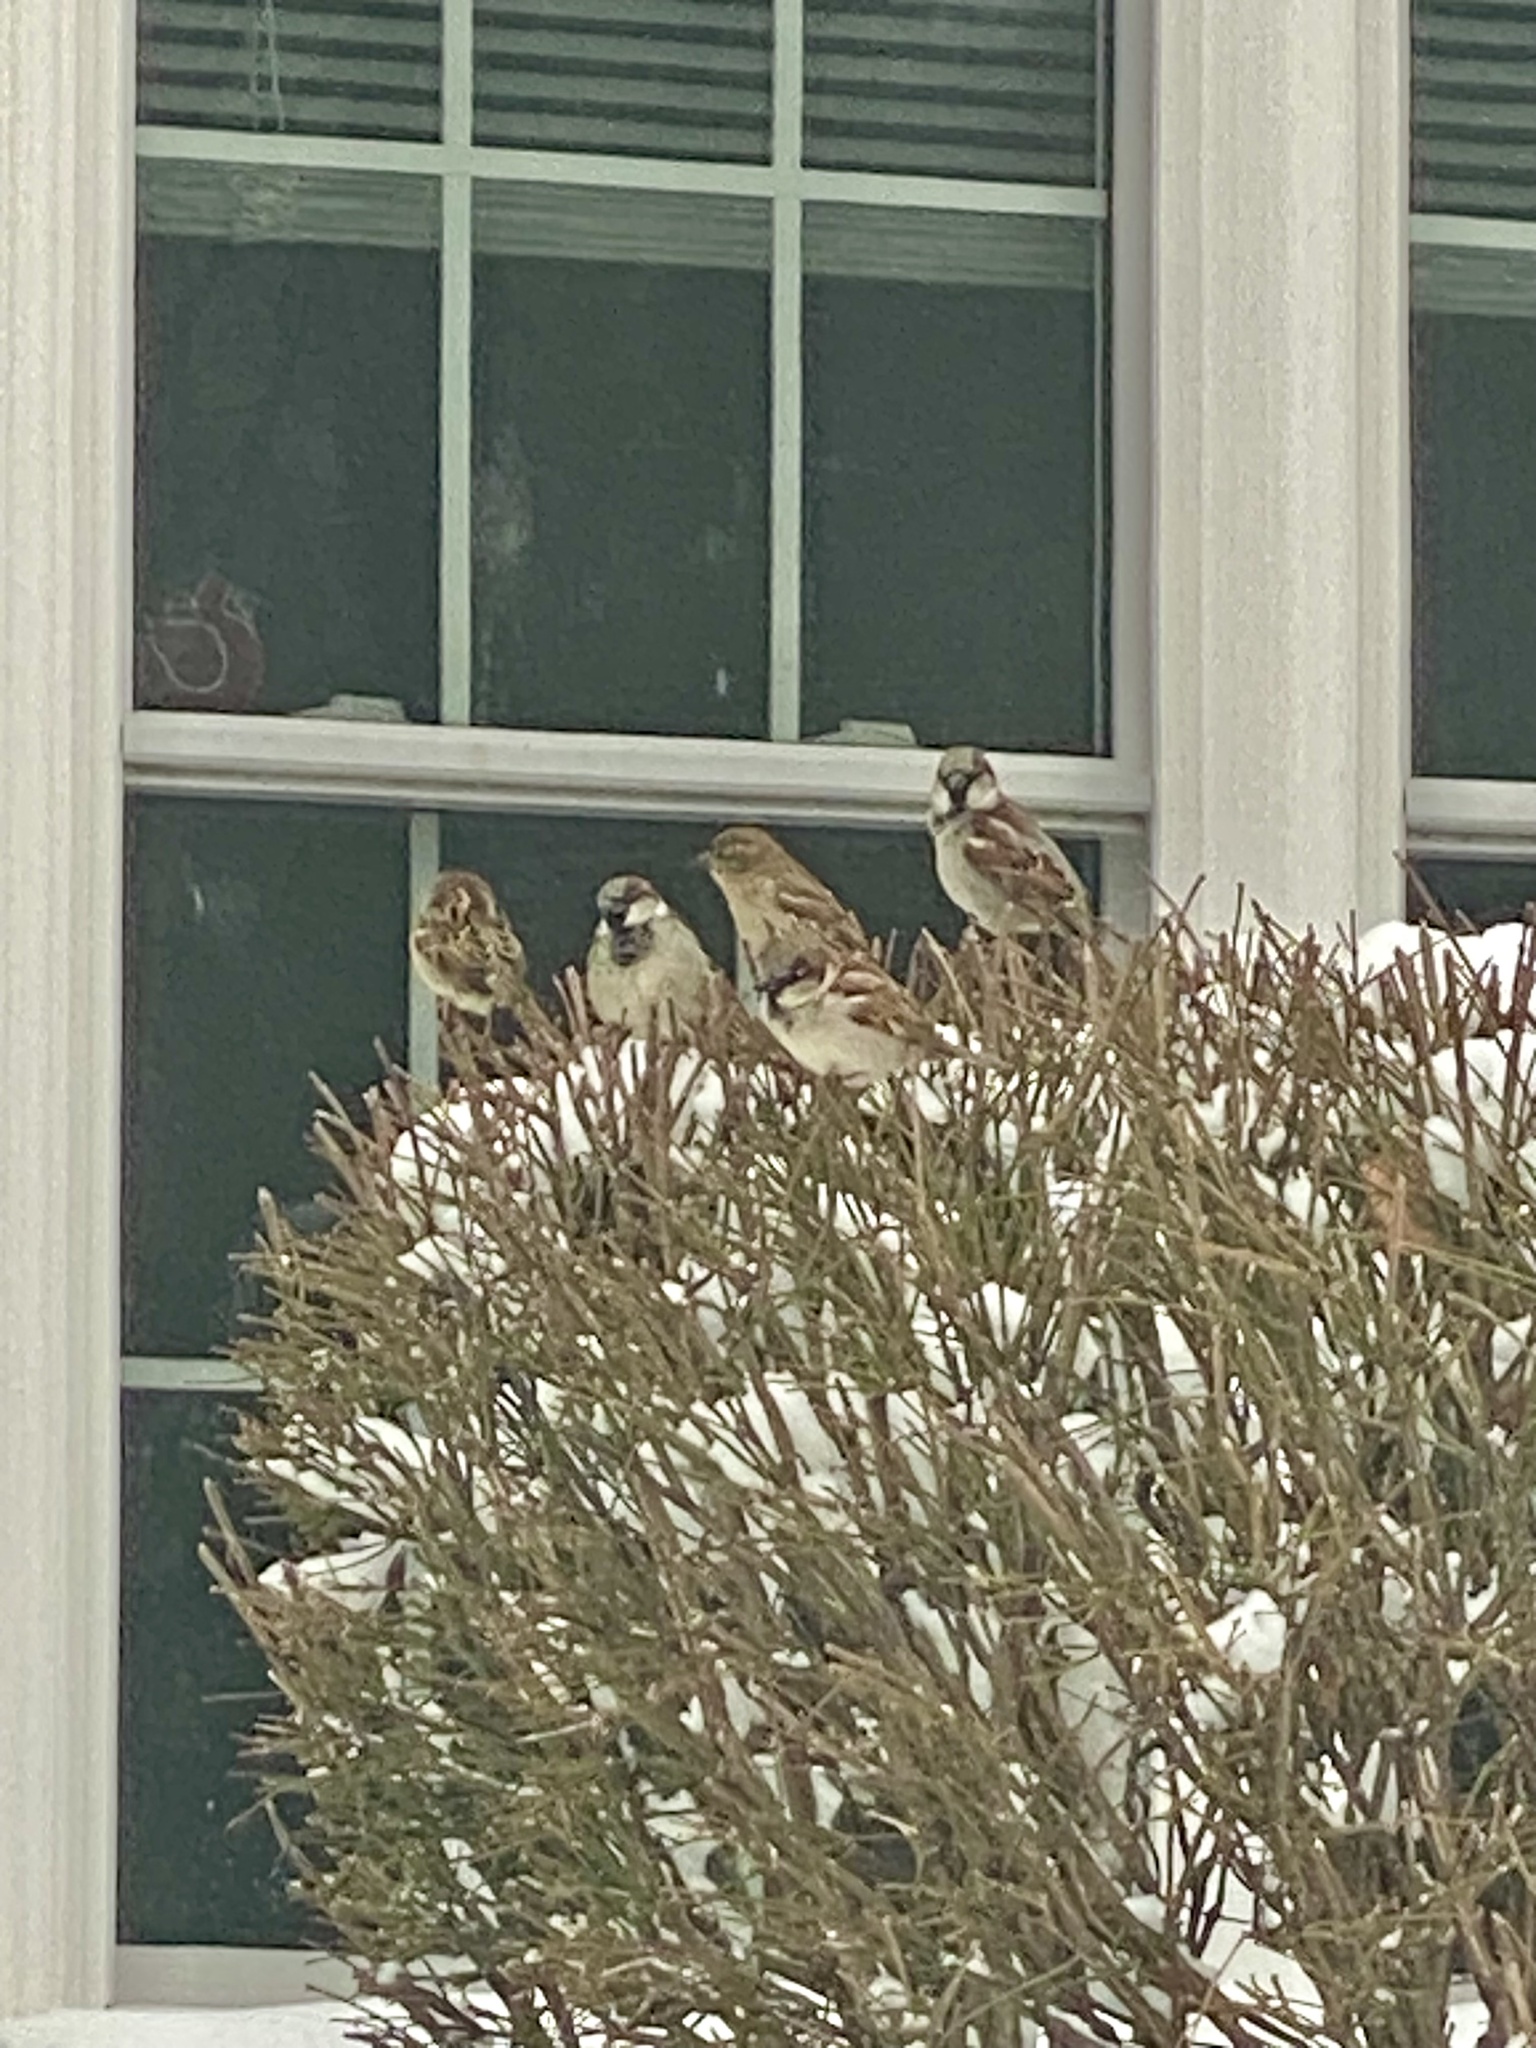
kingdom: Animalia
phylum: Chordata
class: Aves
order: Passeriformes
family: Passeridae
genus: Passer
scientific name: Passer domesticus
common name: House sparrow
